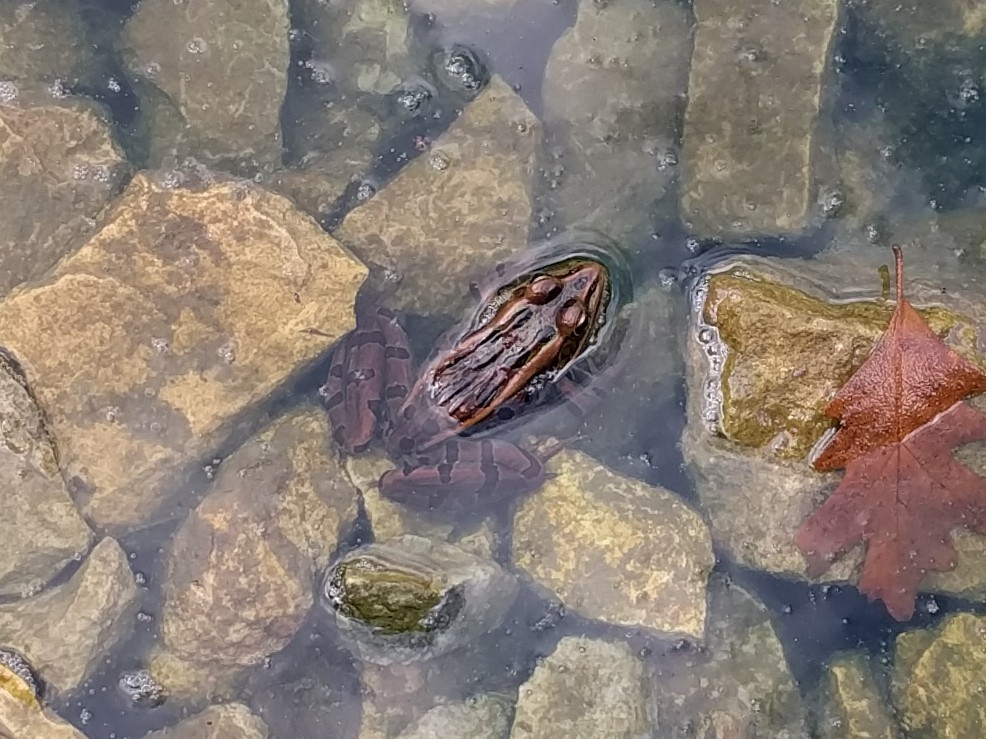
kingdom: Animalia
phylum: Chordata
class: Amphibia
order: Anura
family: Ranidae
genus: Lithobates
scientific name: Lithobates pipiens
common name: Northern leopard frog
